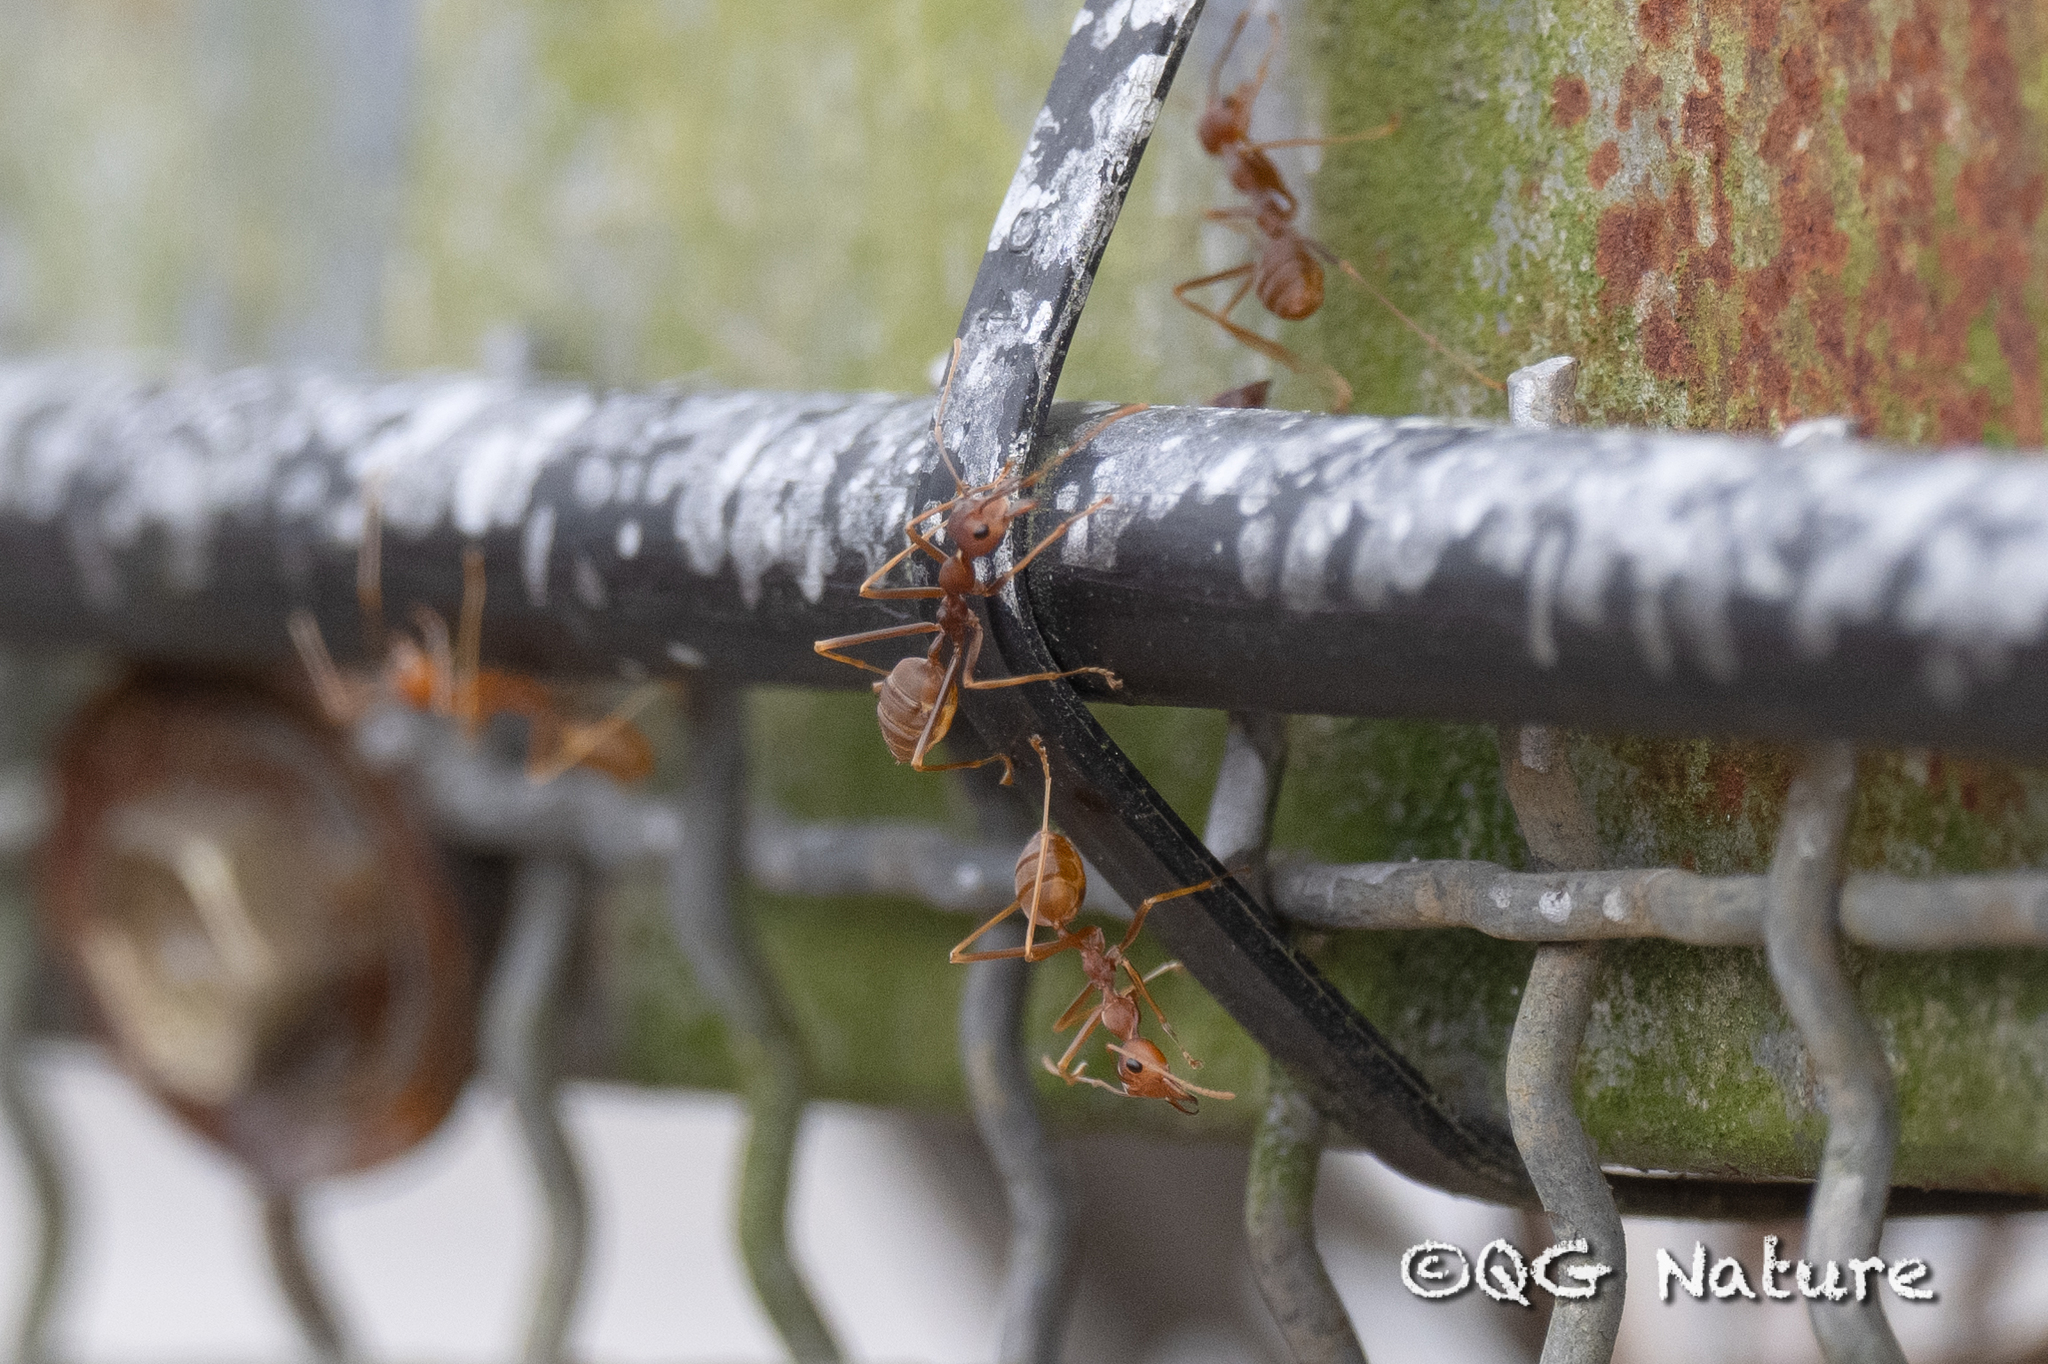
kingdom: Animalia
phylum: Arthropoda
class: Insecta
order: Hymenoptera
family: Formicidae
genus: Oecophylla
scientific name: Oecophylla smaragdina
